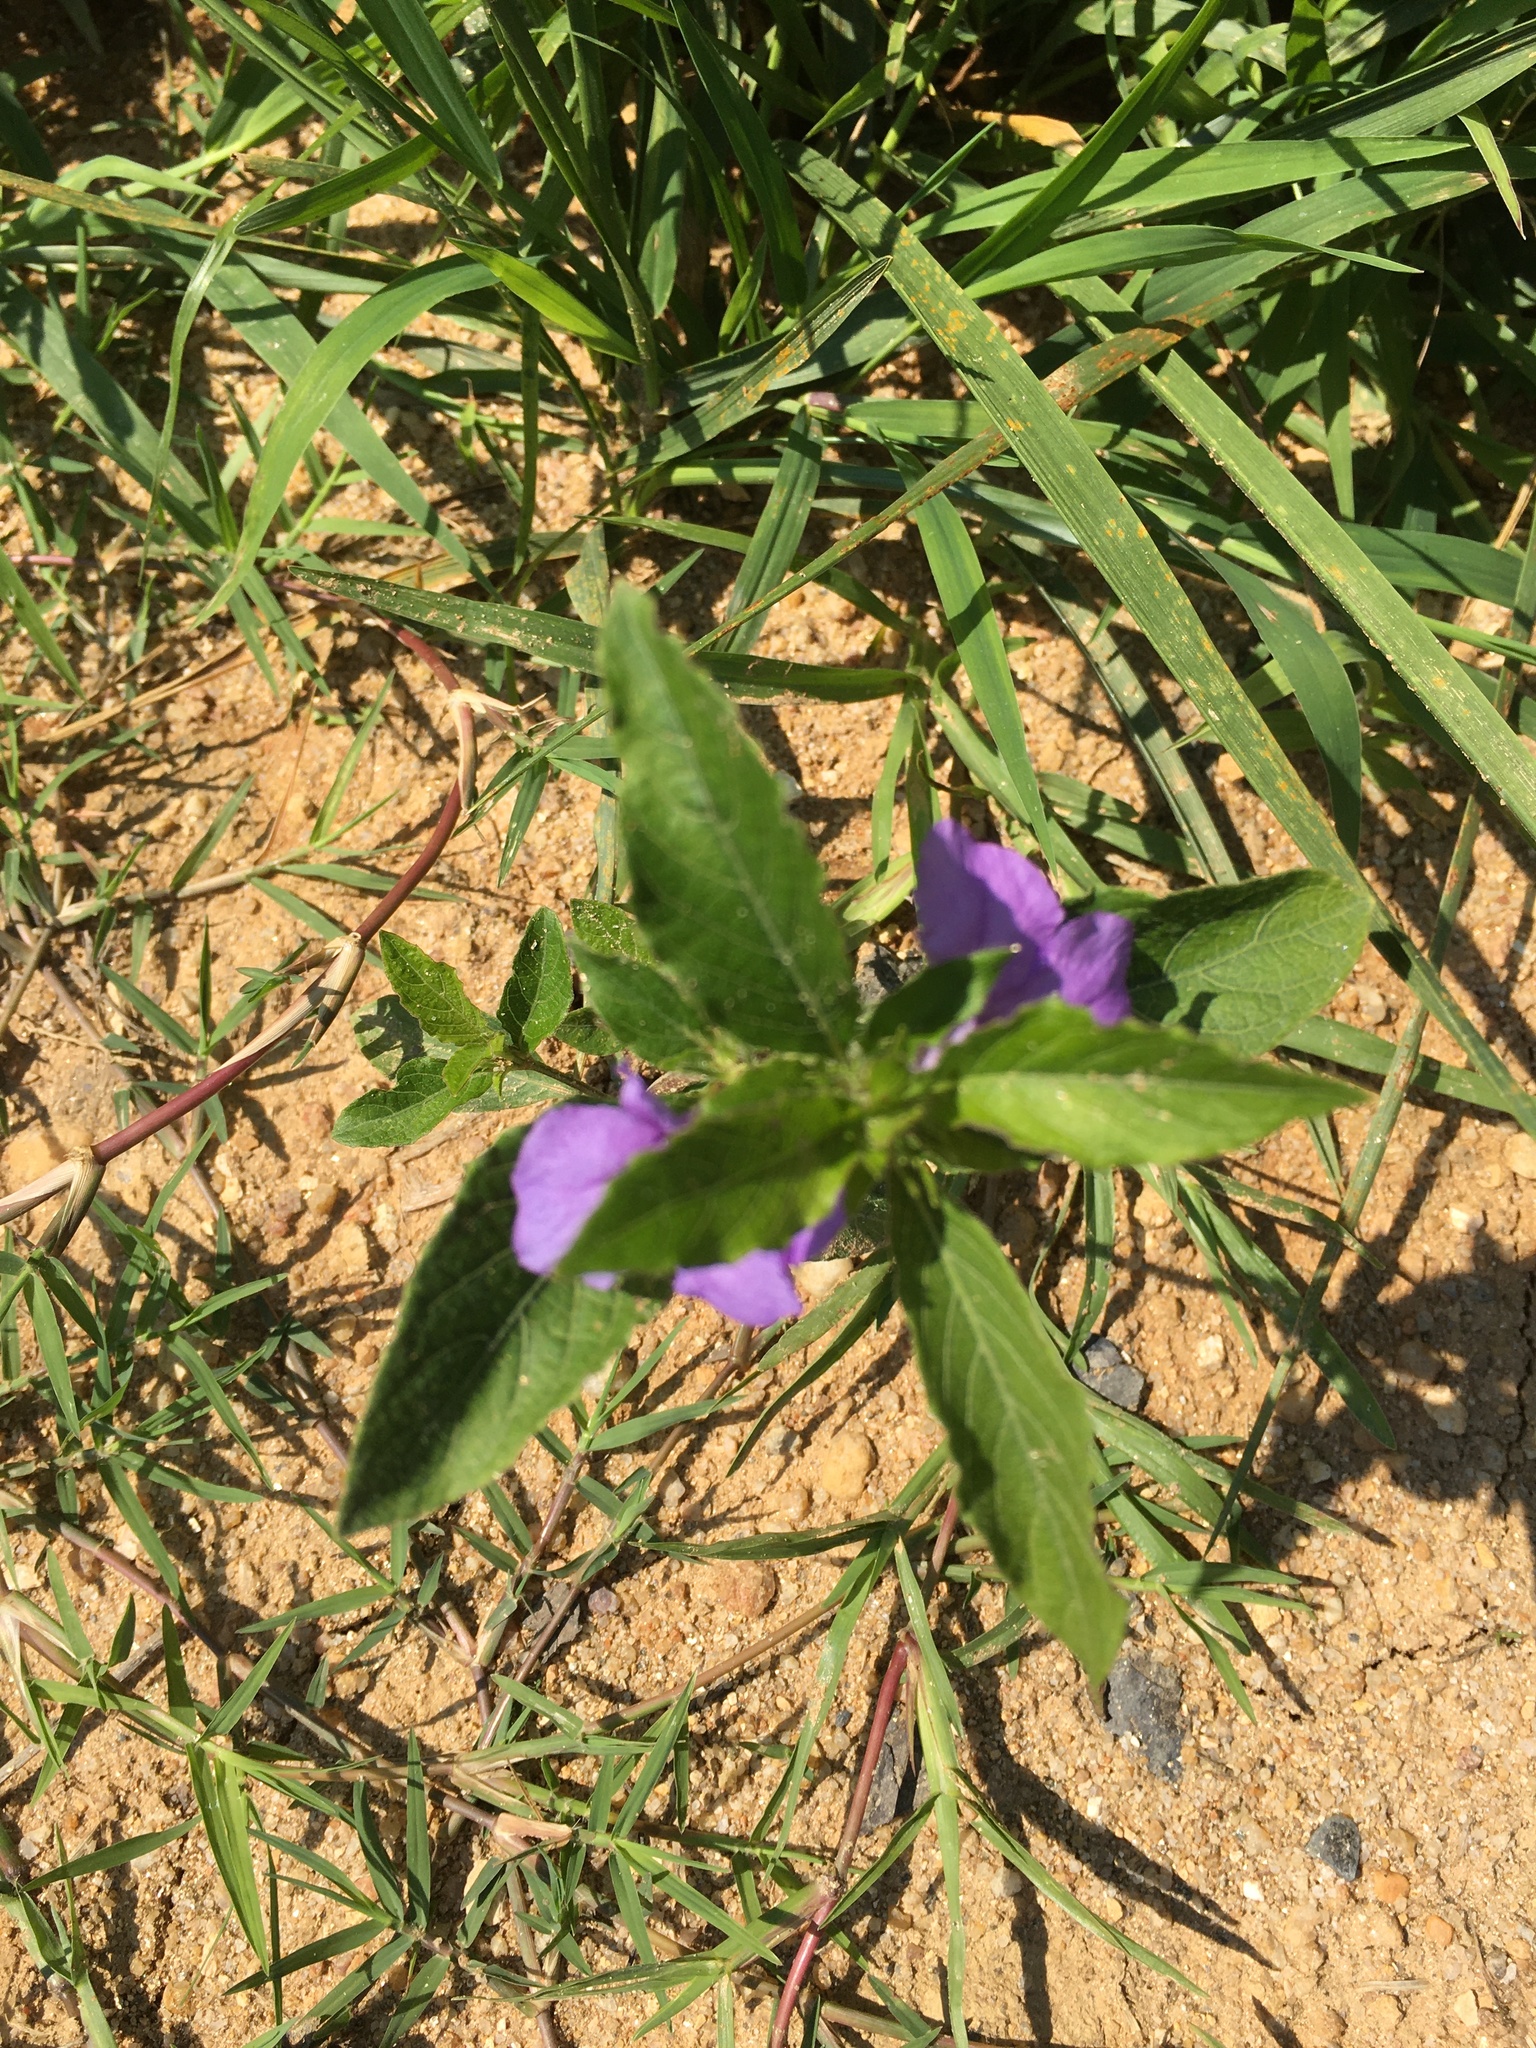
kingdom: Plantae
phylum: Tracheophyta
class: Magnoliopsida
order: Lamiales
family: Acanthaceae
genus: Ruellia
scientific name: Ruellia caroliniensis
